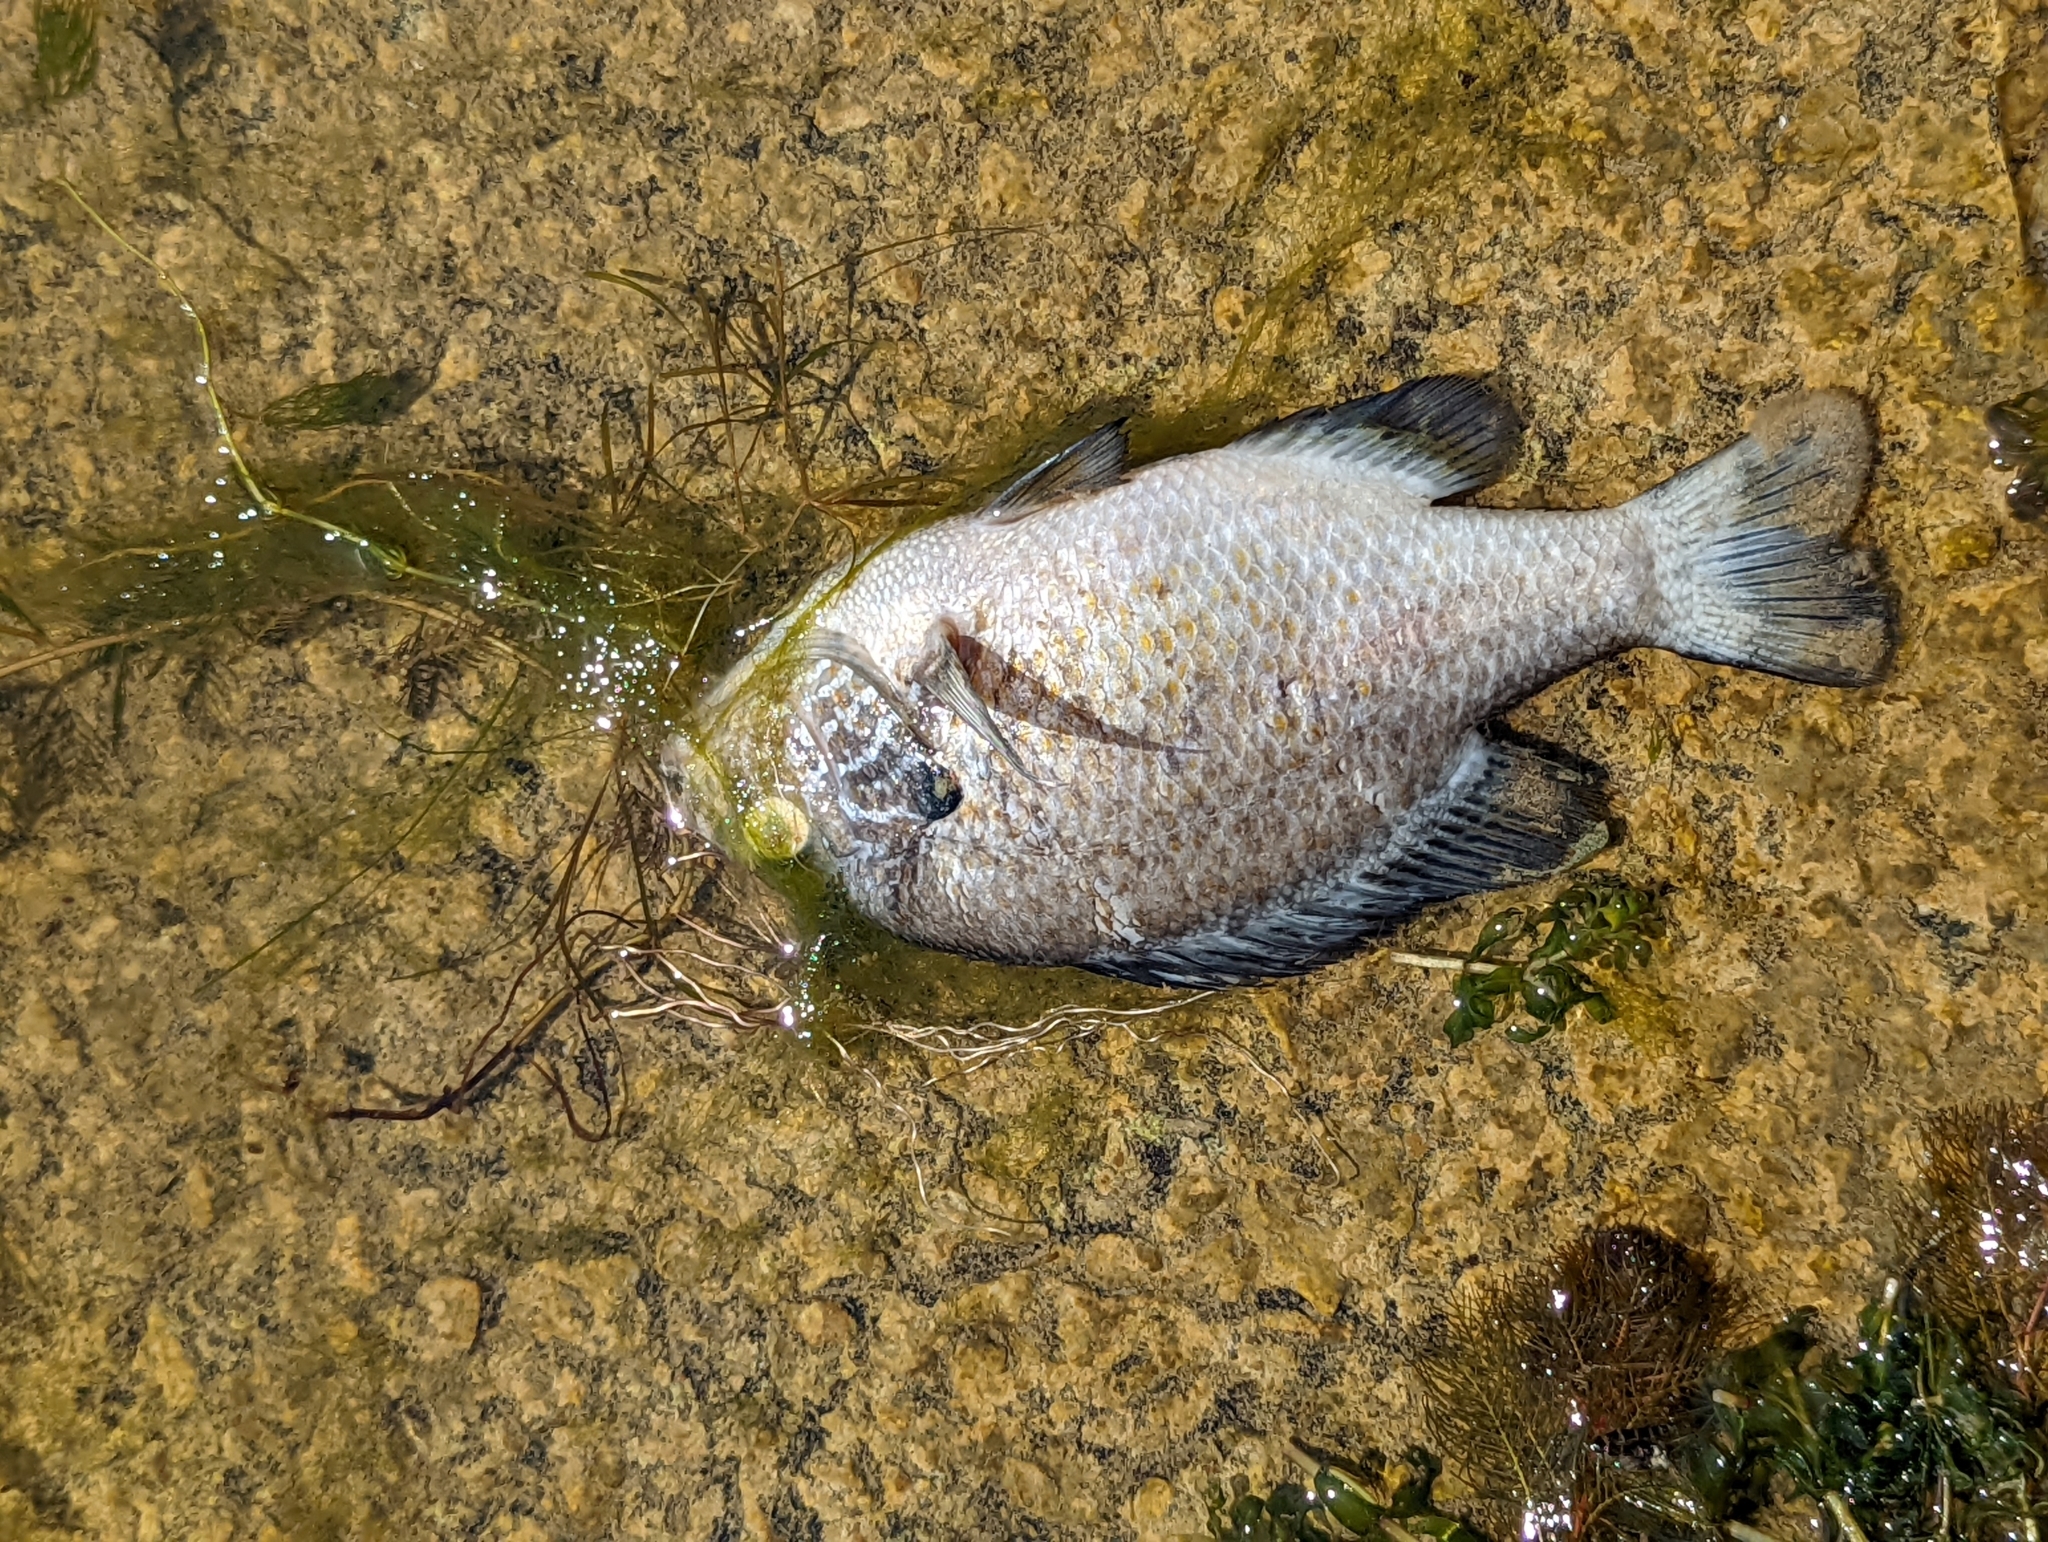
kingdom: Animalia
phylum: Chordata
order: Perciformes
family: Centrarchidae
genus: Lepomis
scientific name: Lepomis gibbosus
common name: Pumpkinseed
